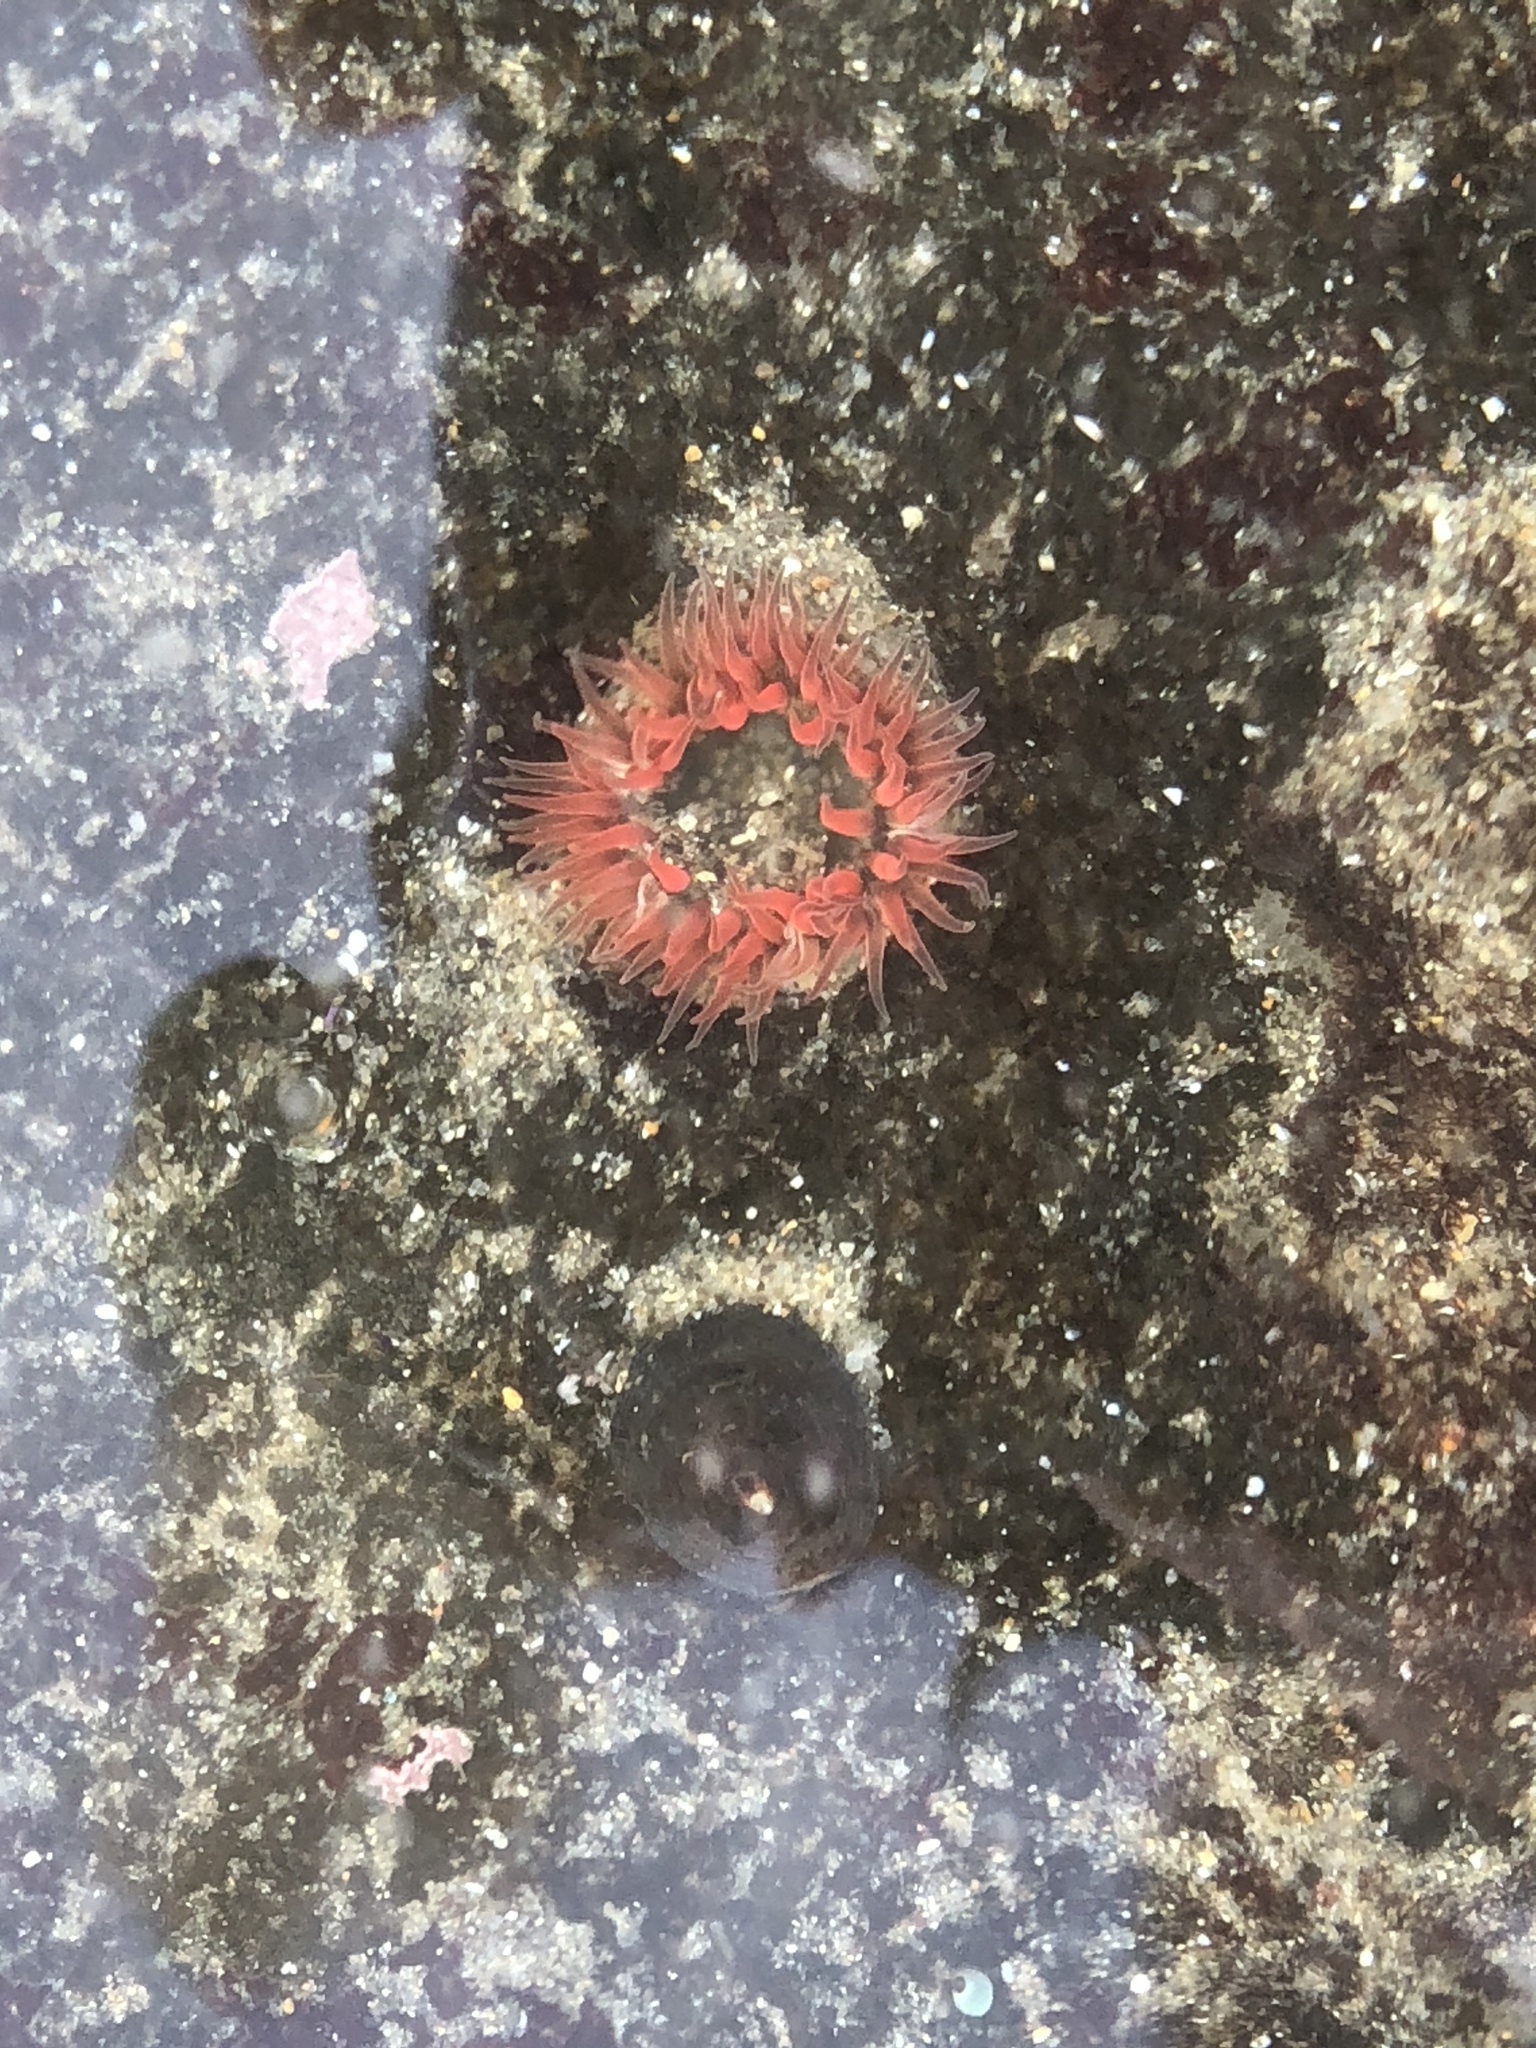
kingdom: Animalia
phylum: Cnidaria
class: Anthozoa
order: Actiniaria
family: Actiniidae
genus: Anthopleura
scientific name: Anthopleura artemisia
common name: Buried sea anemone
